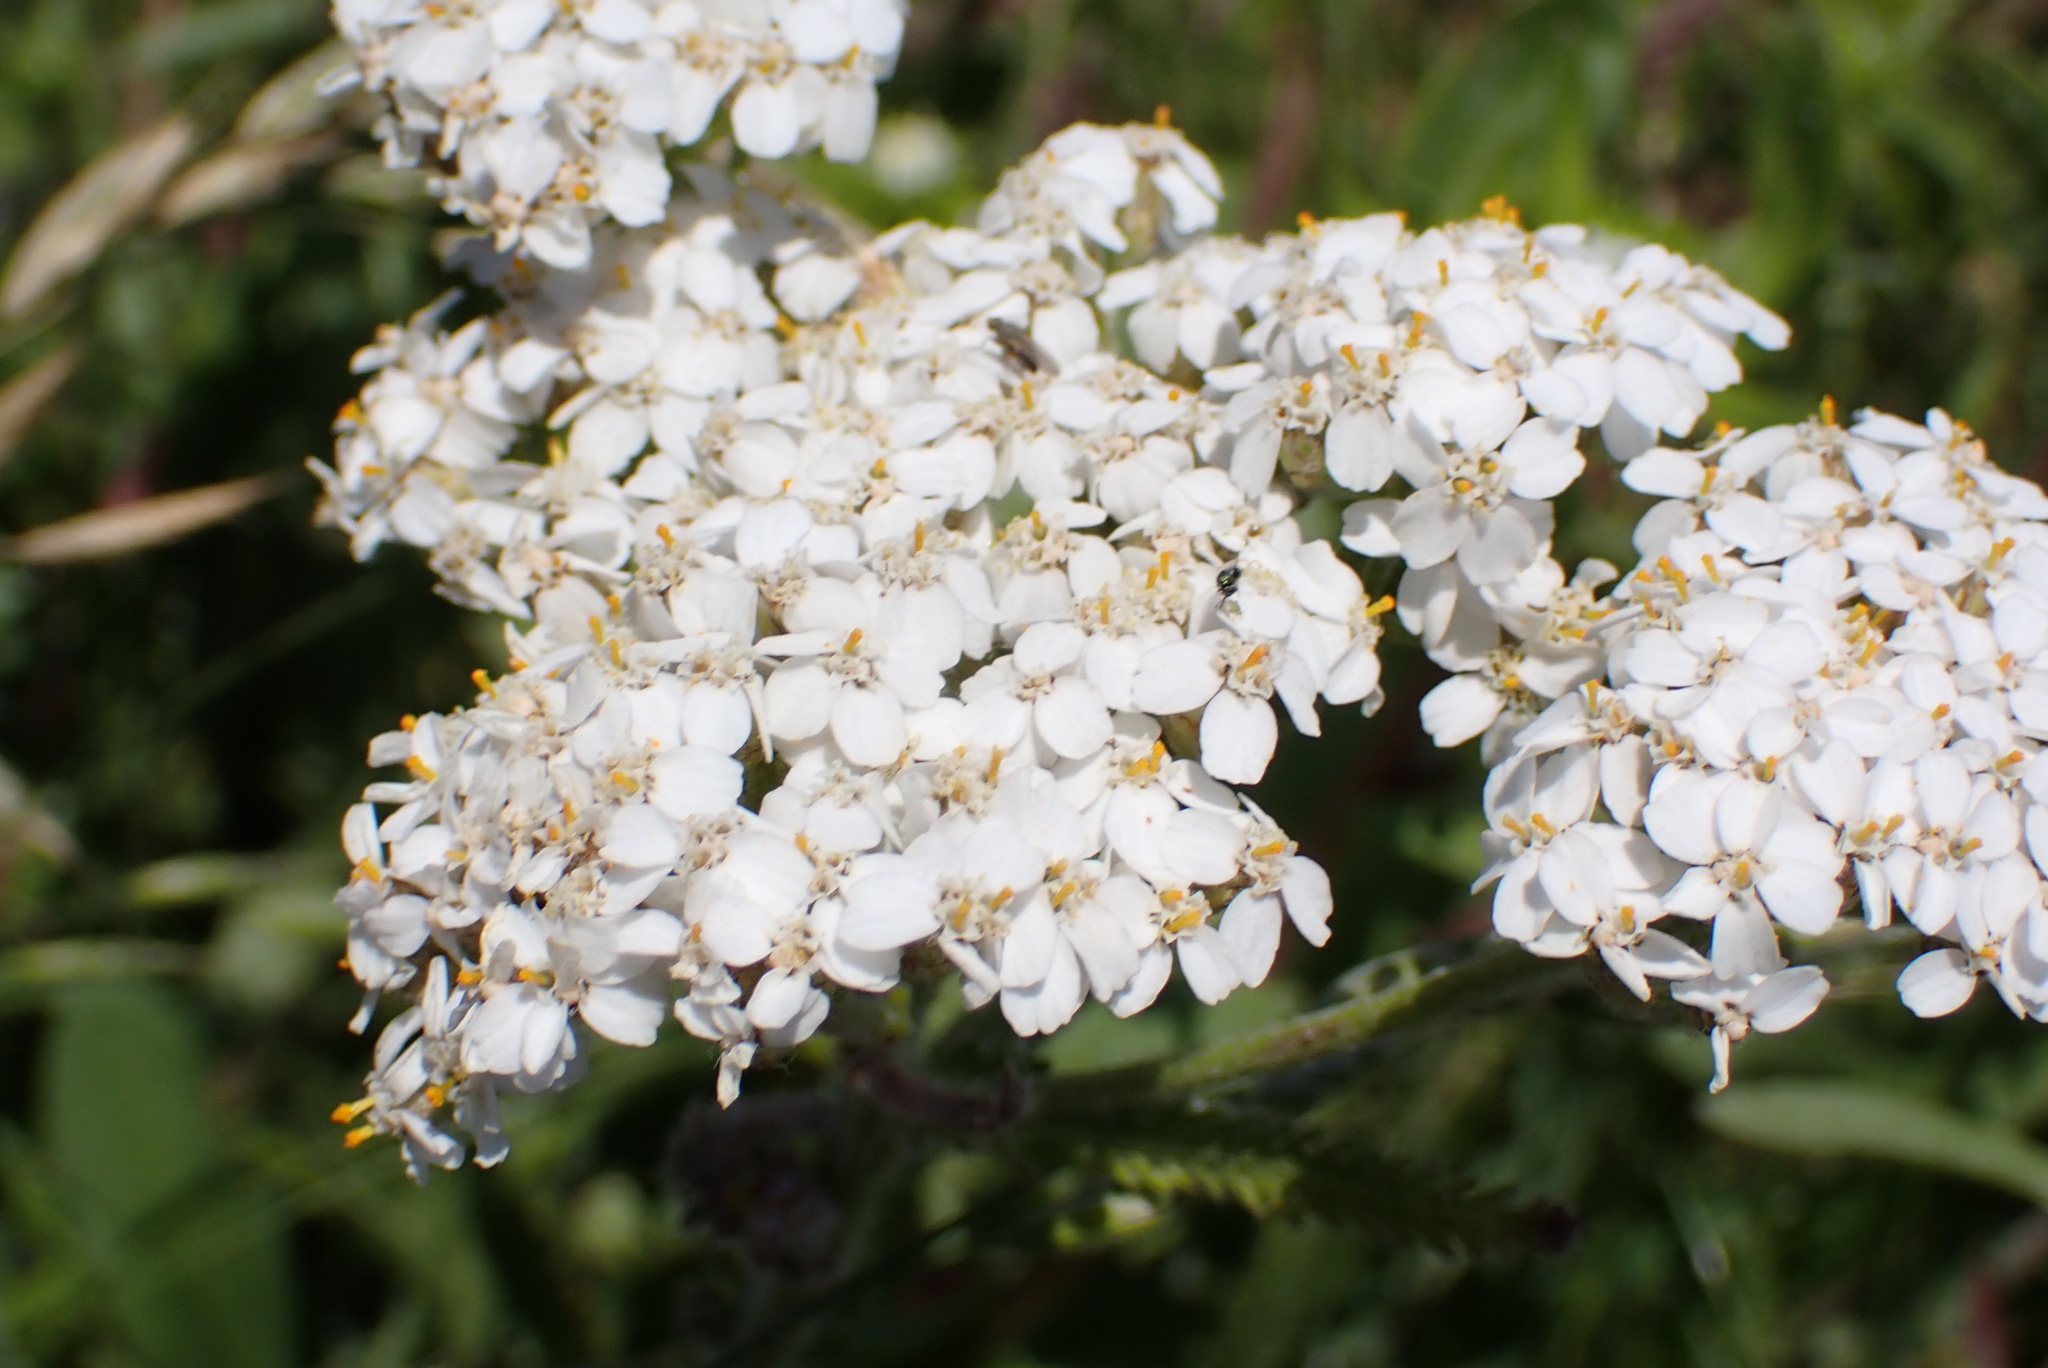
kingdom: Plantae
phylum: Tracheophyta
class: Magnoliopsida
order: Asterales
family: Asteraceae
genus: Achillea
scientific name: Achillea millefolium
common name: Yarrow
